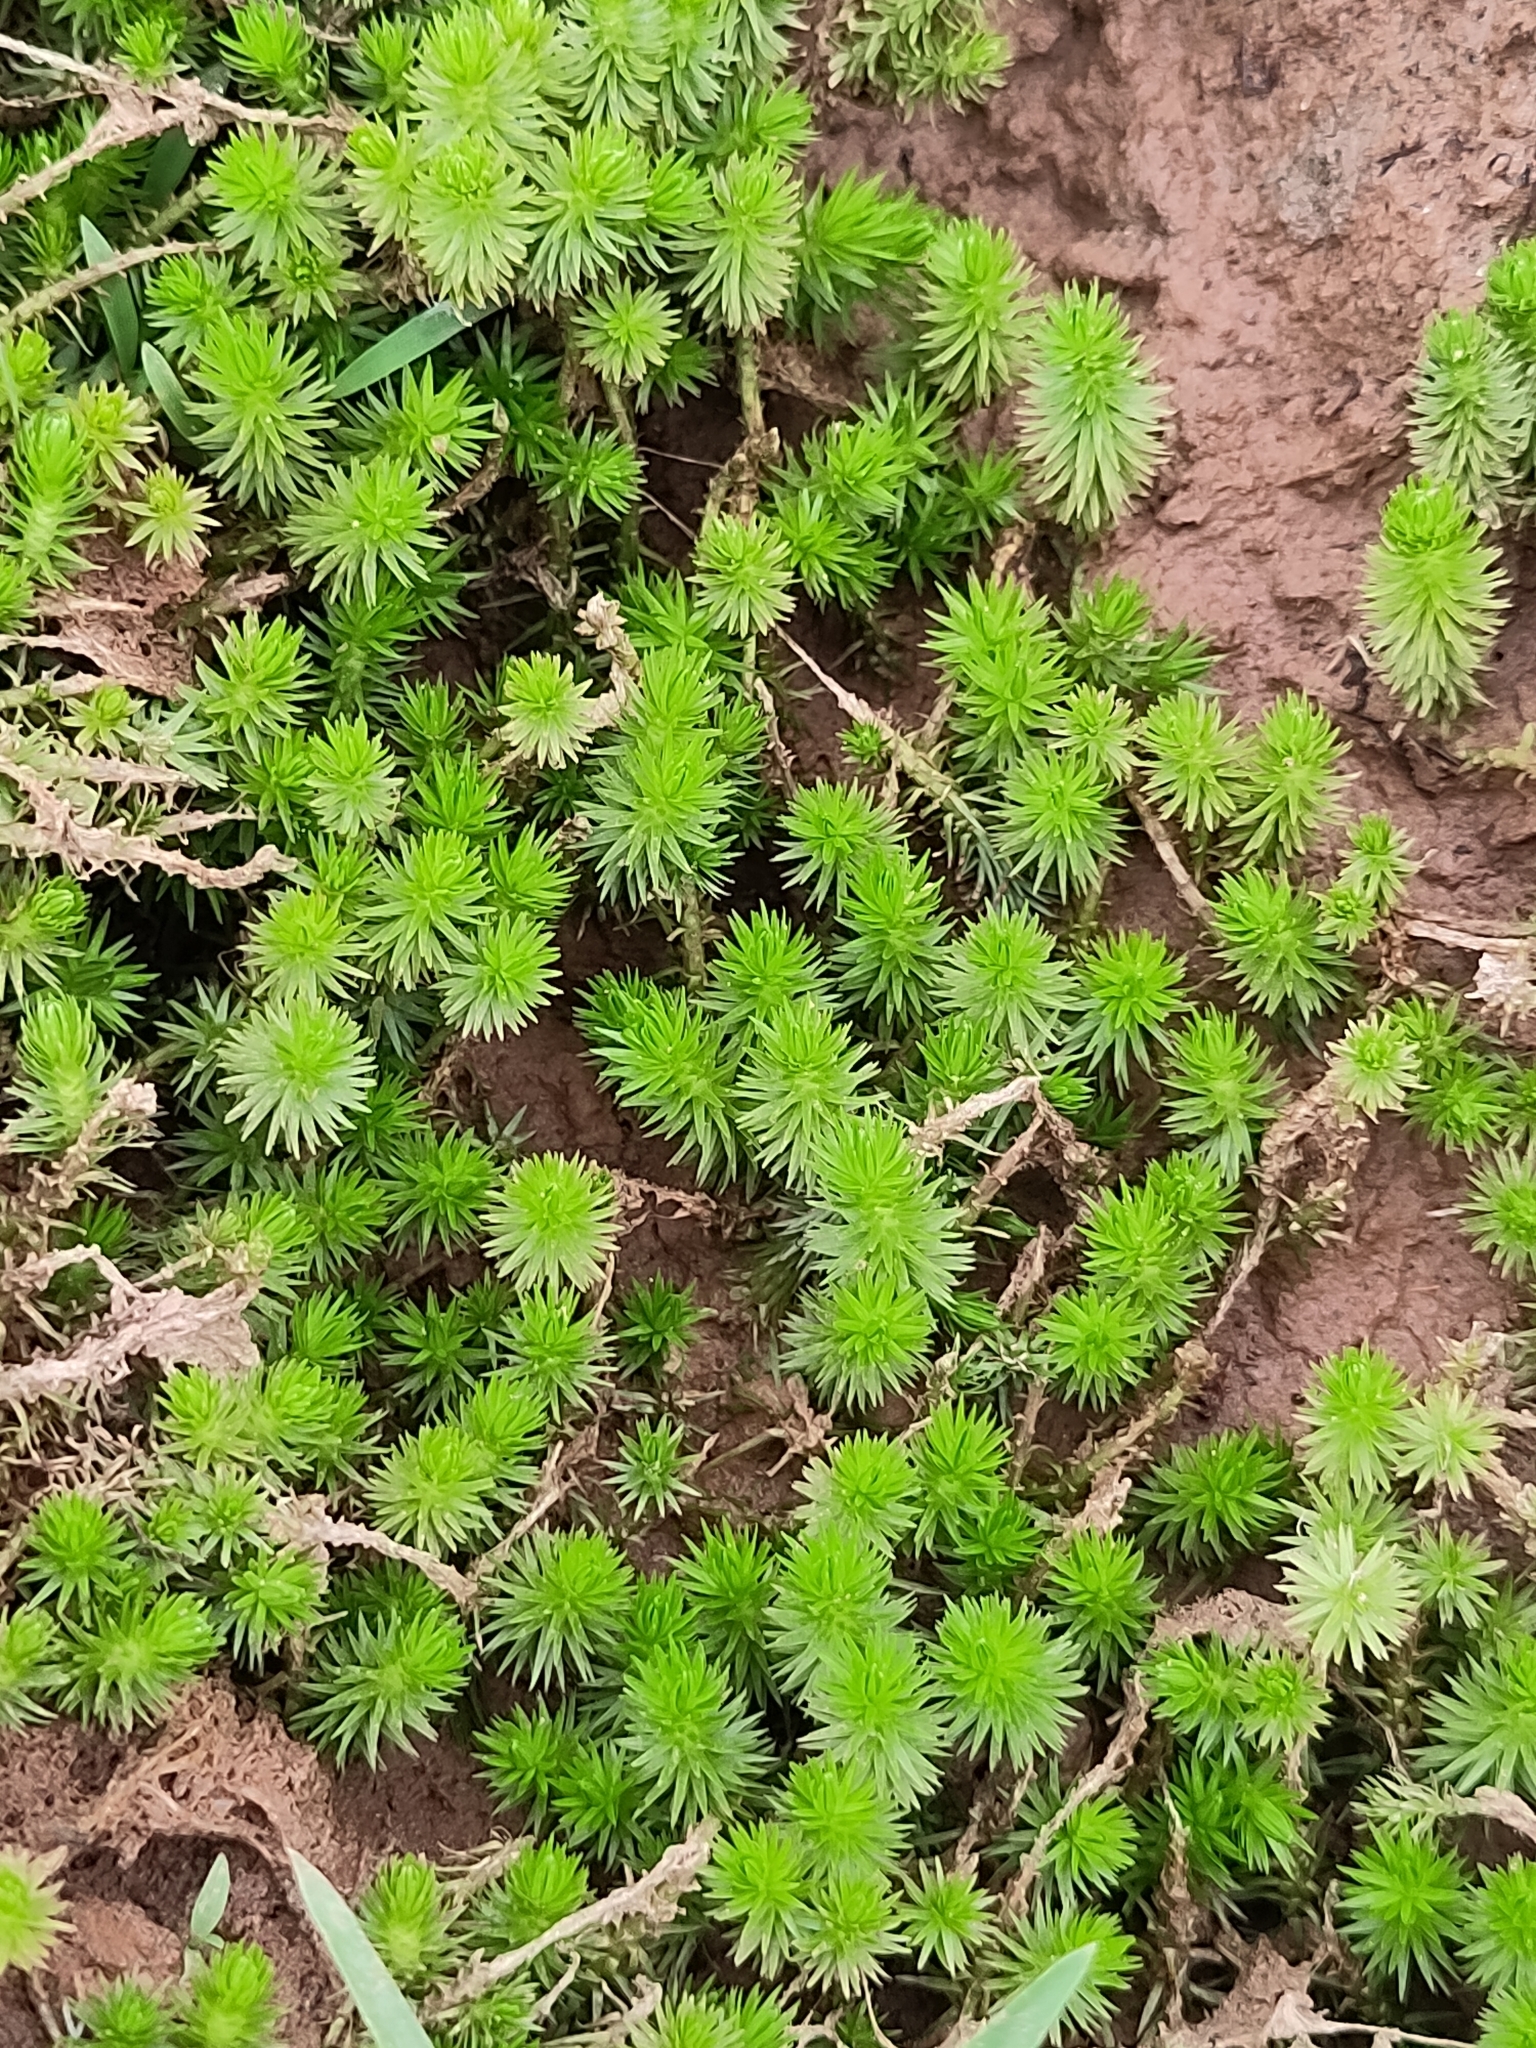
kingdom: Plantae
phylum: Tracheophyta
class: Liliopsida
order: Poales
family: Mayacaceae
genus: Mayaca
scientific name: Mayaca fluviatilis
